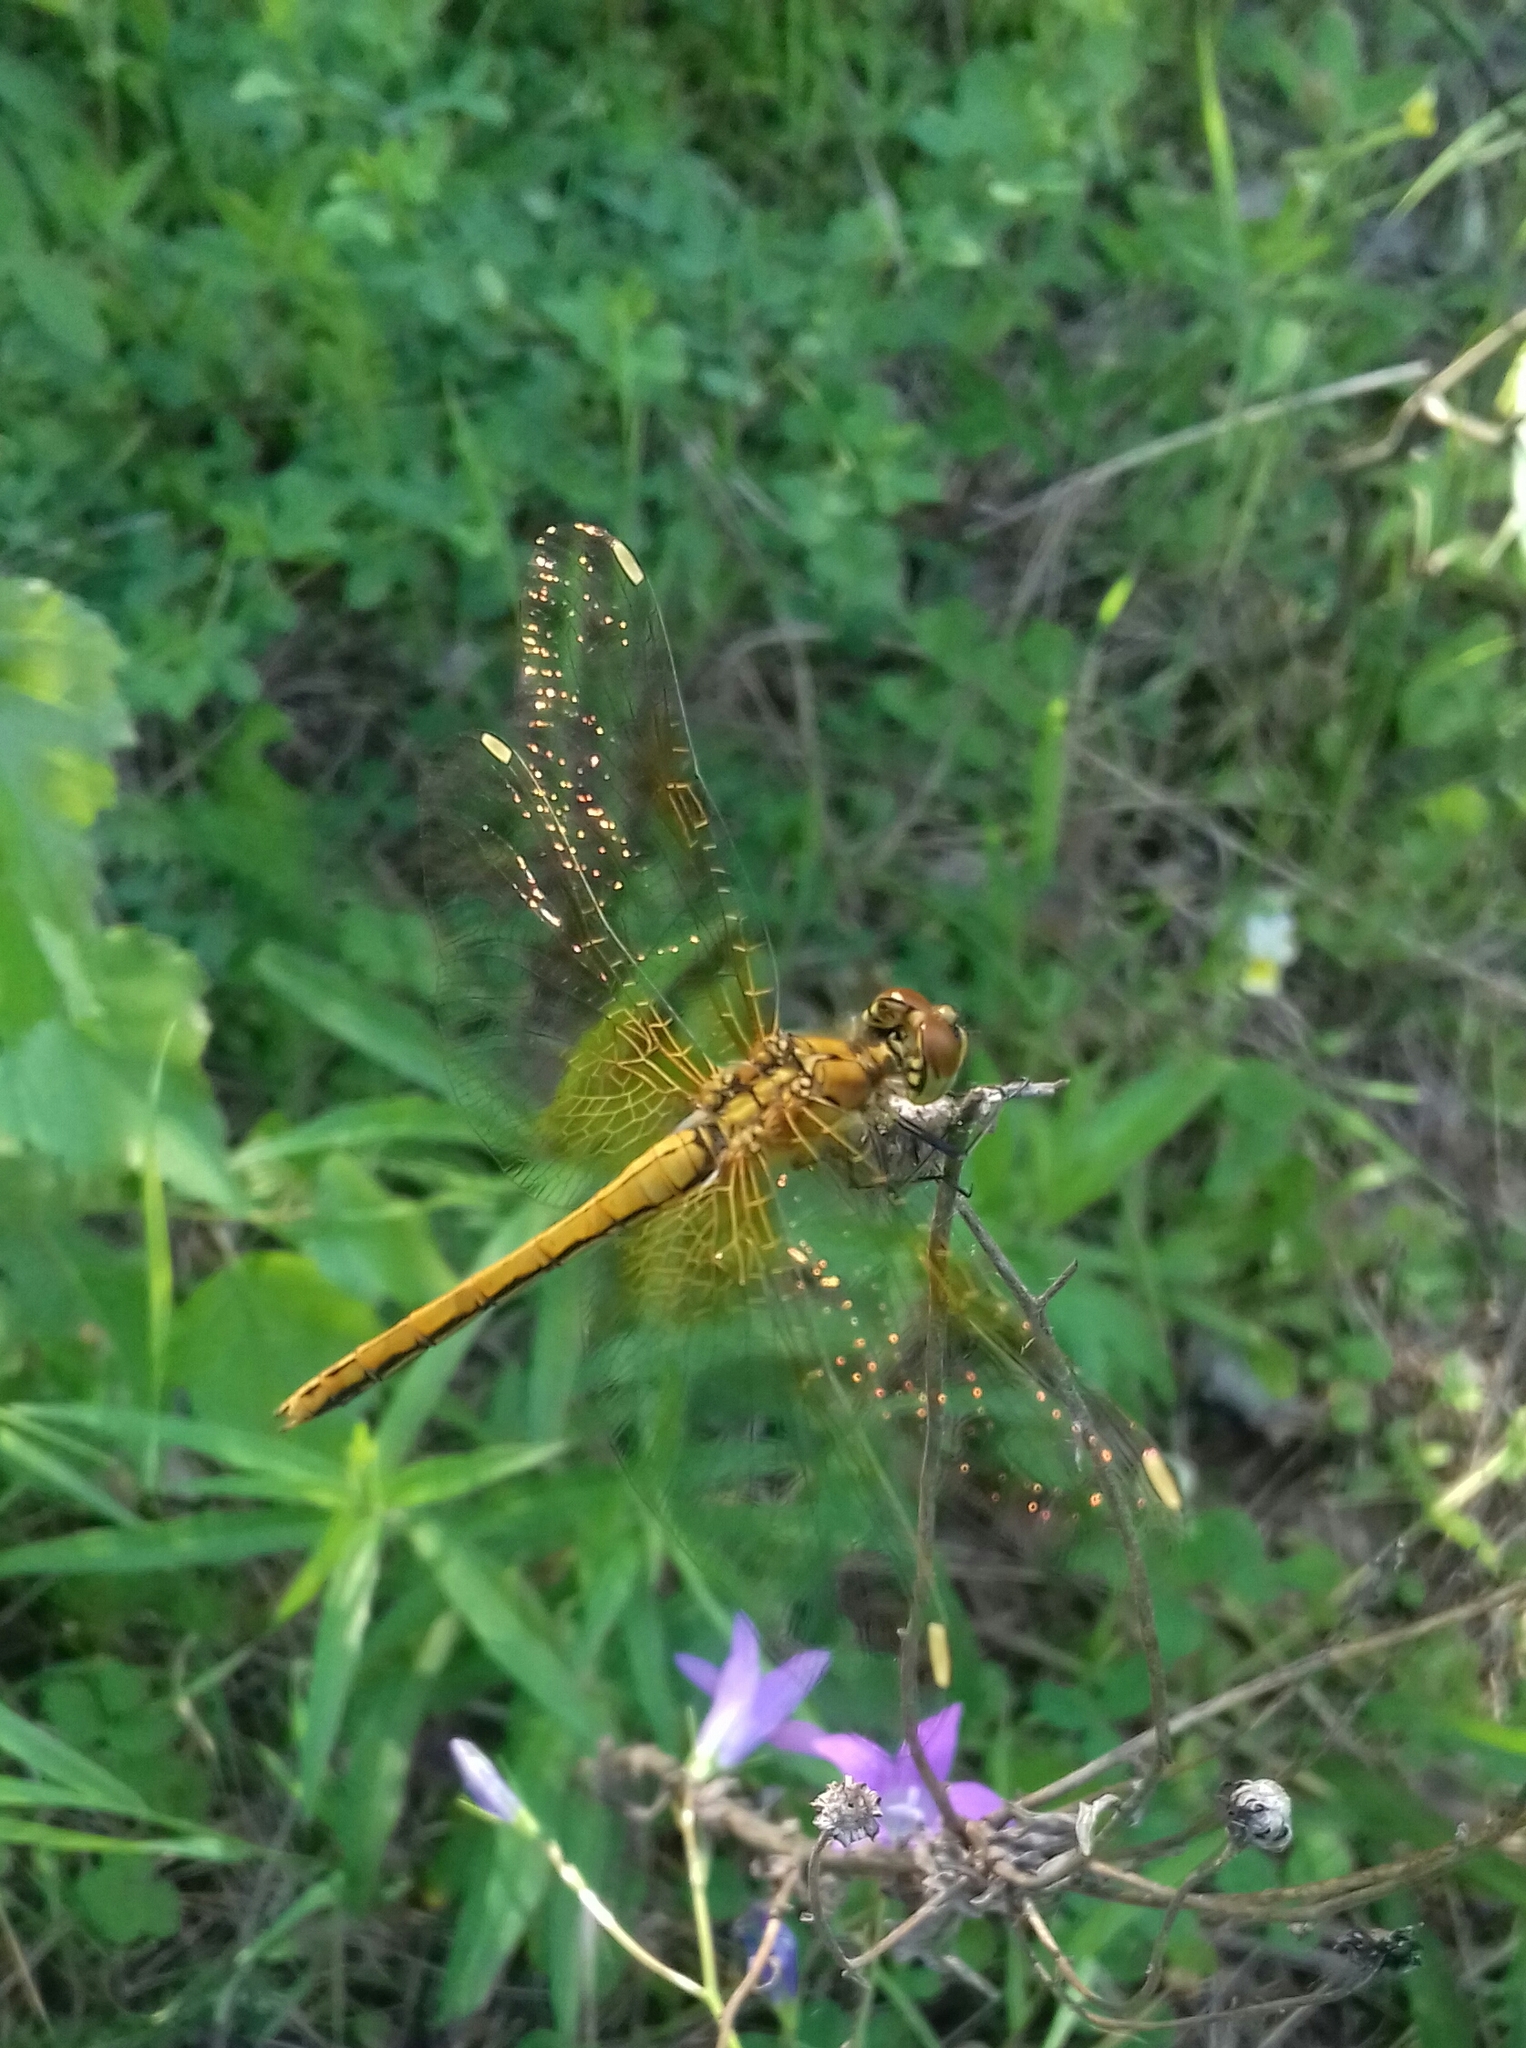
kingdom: Animalia
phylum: Arthropoda
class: Insecta
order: Odonata
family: Libellulidae
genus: Sympetrum
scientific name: Sympetrum flaveolum
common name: Yellow-winged darter
